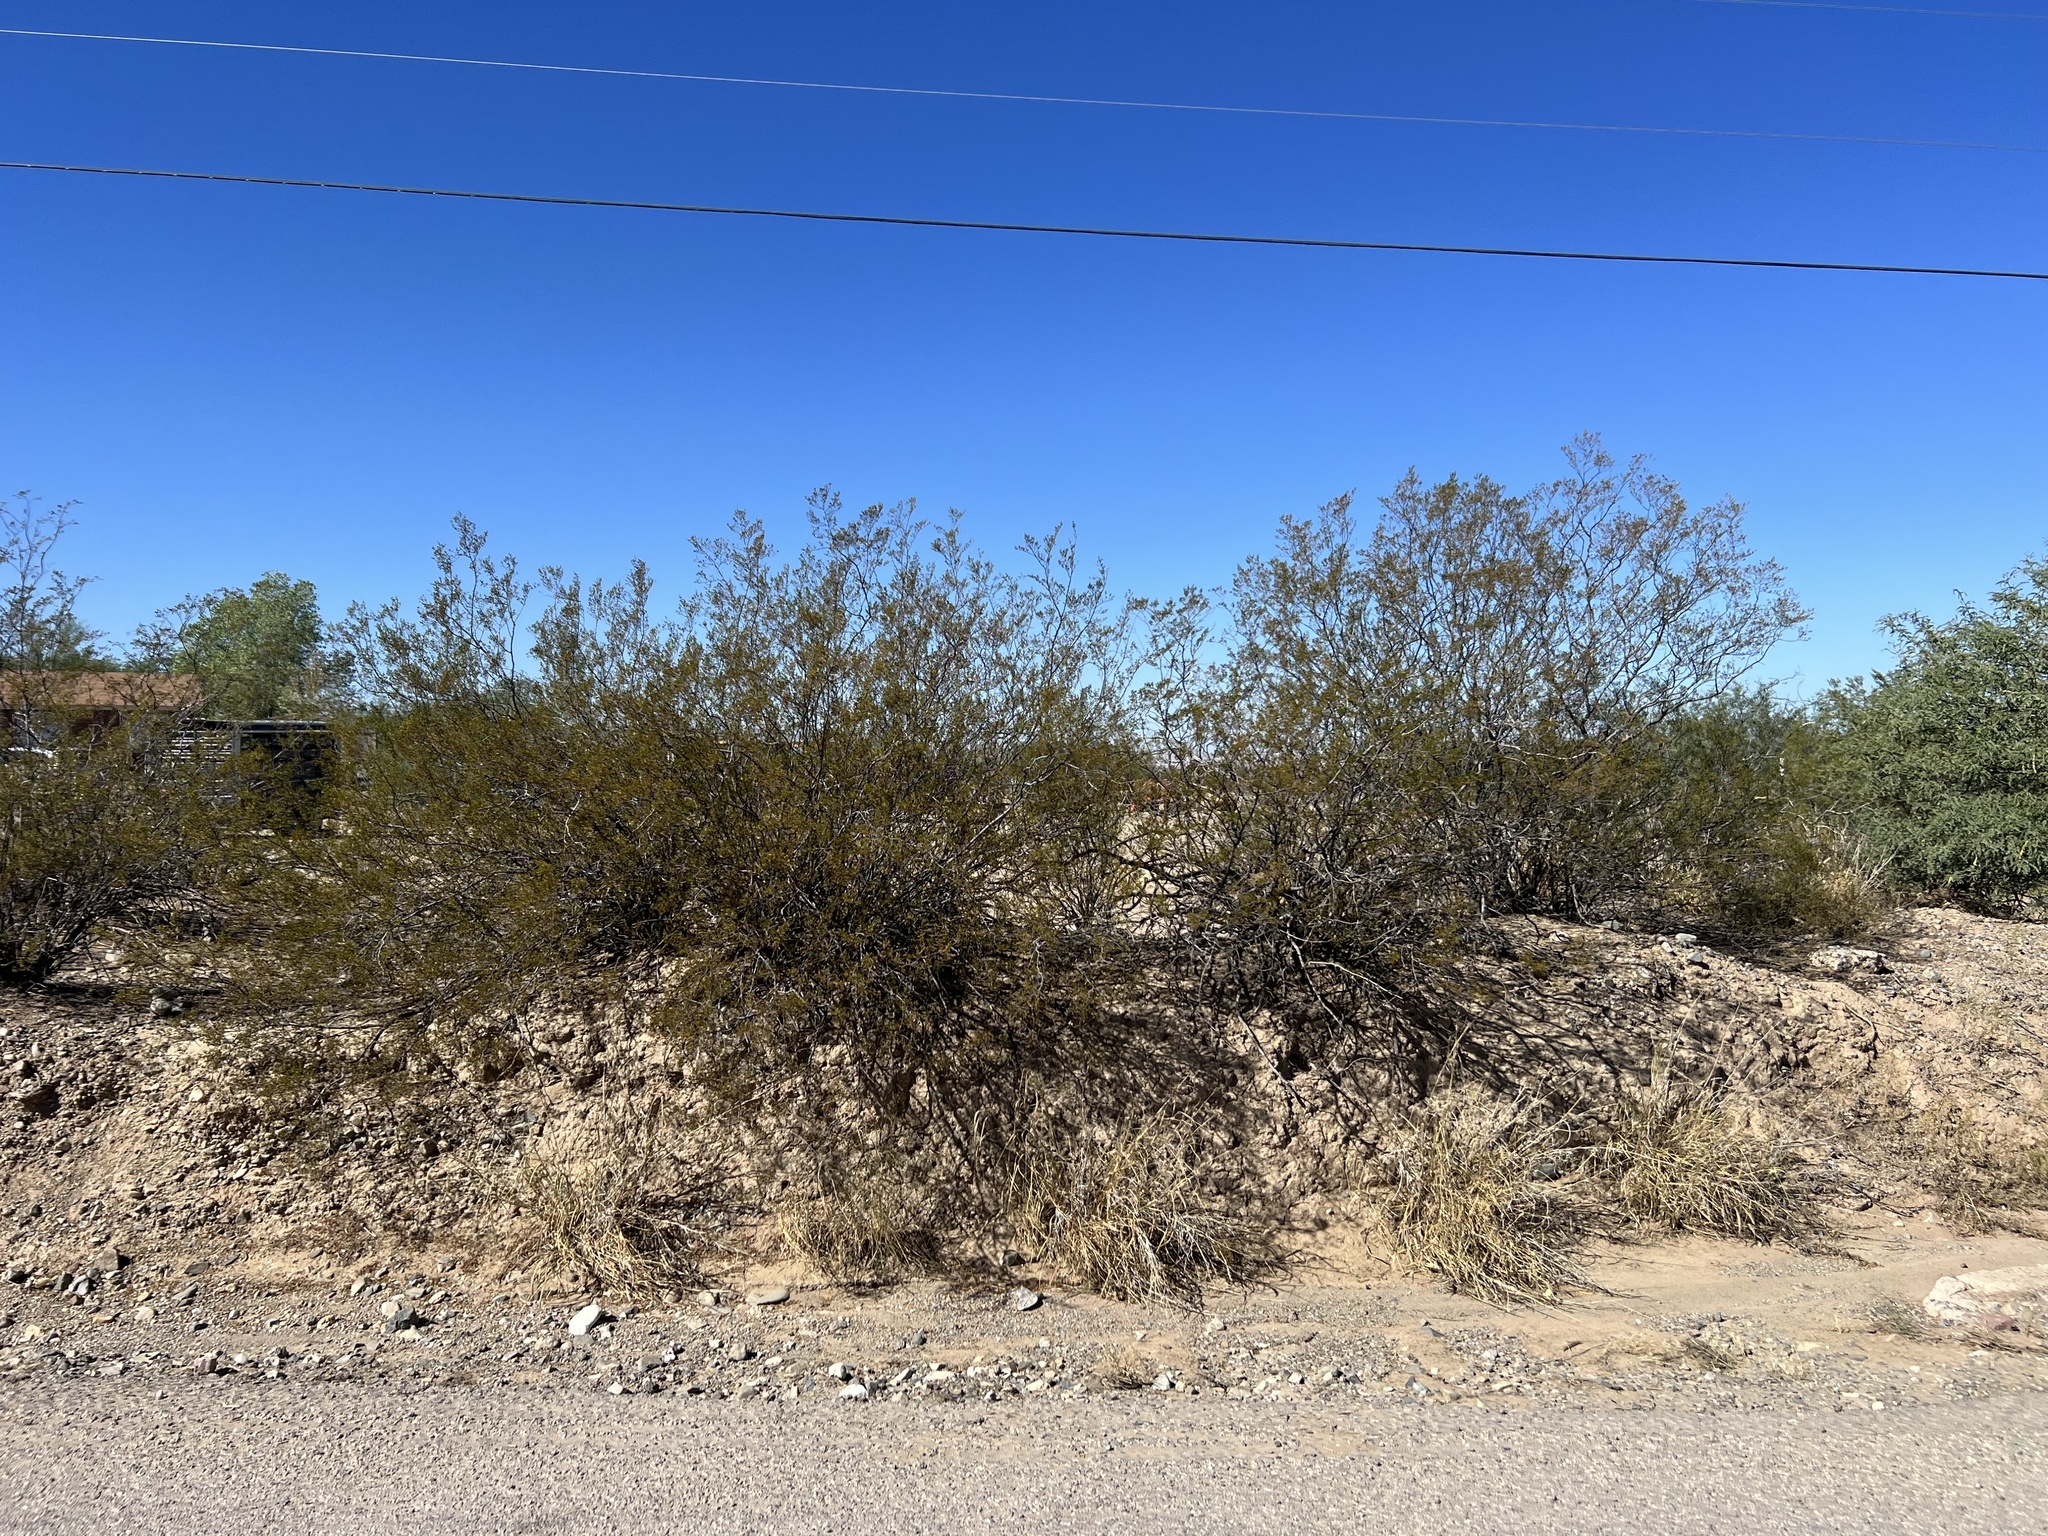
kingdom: Plantae
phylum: Tracheophyta
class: Magnoliopsida
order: Zygophyllales
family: Zygophyllaceae
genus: Larrea
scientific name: Larrea tridentata
